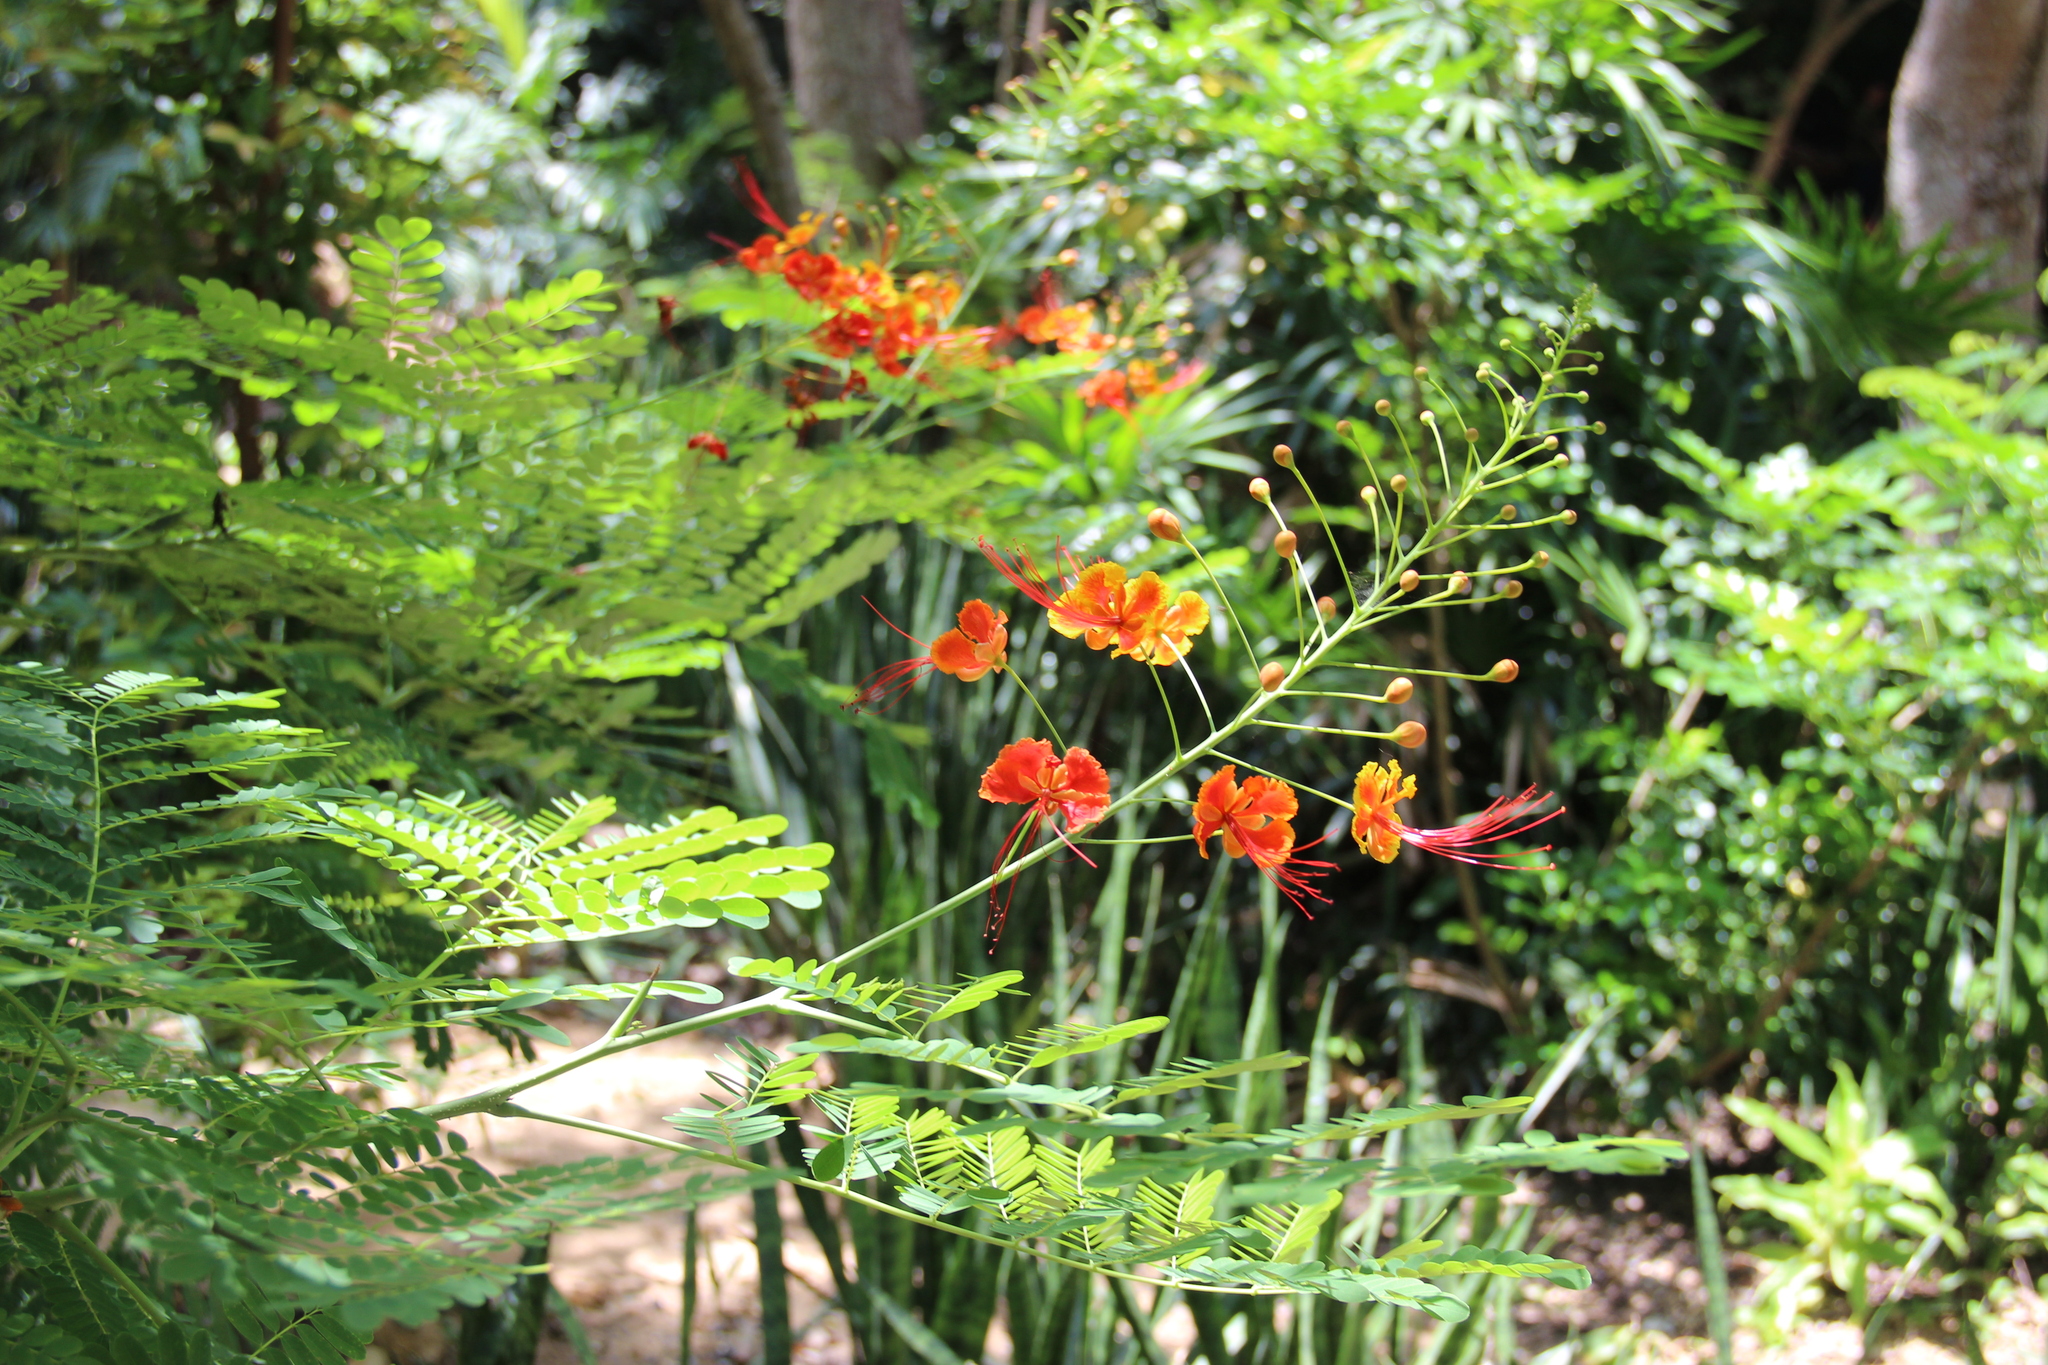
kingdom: Plantae
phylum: Tracheophyta
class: Magnoliopsida
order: Fabales
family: Fabaceae
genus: Caesalpinia
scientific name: Caesalpinia pulcherrima
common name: Pride-of-barbados
